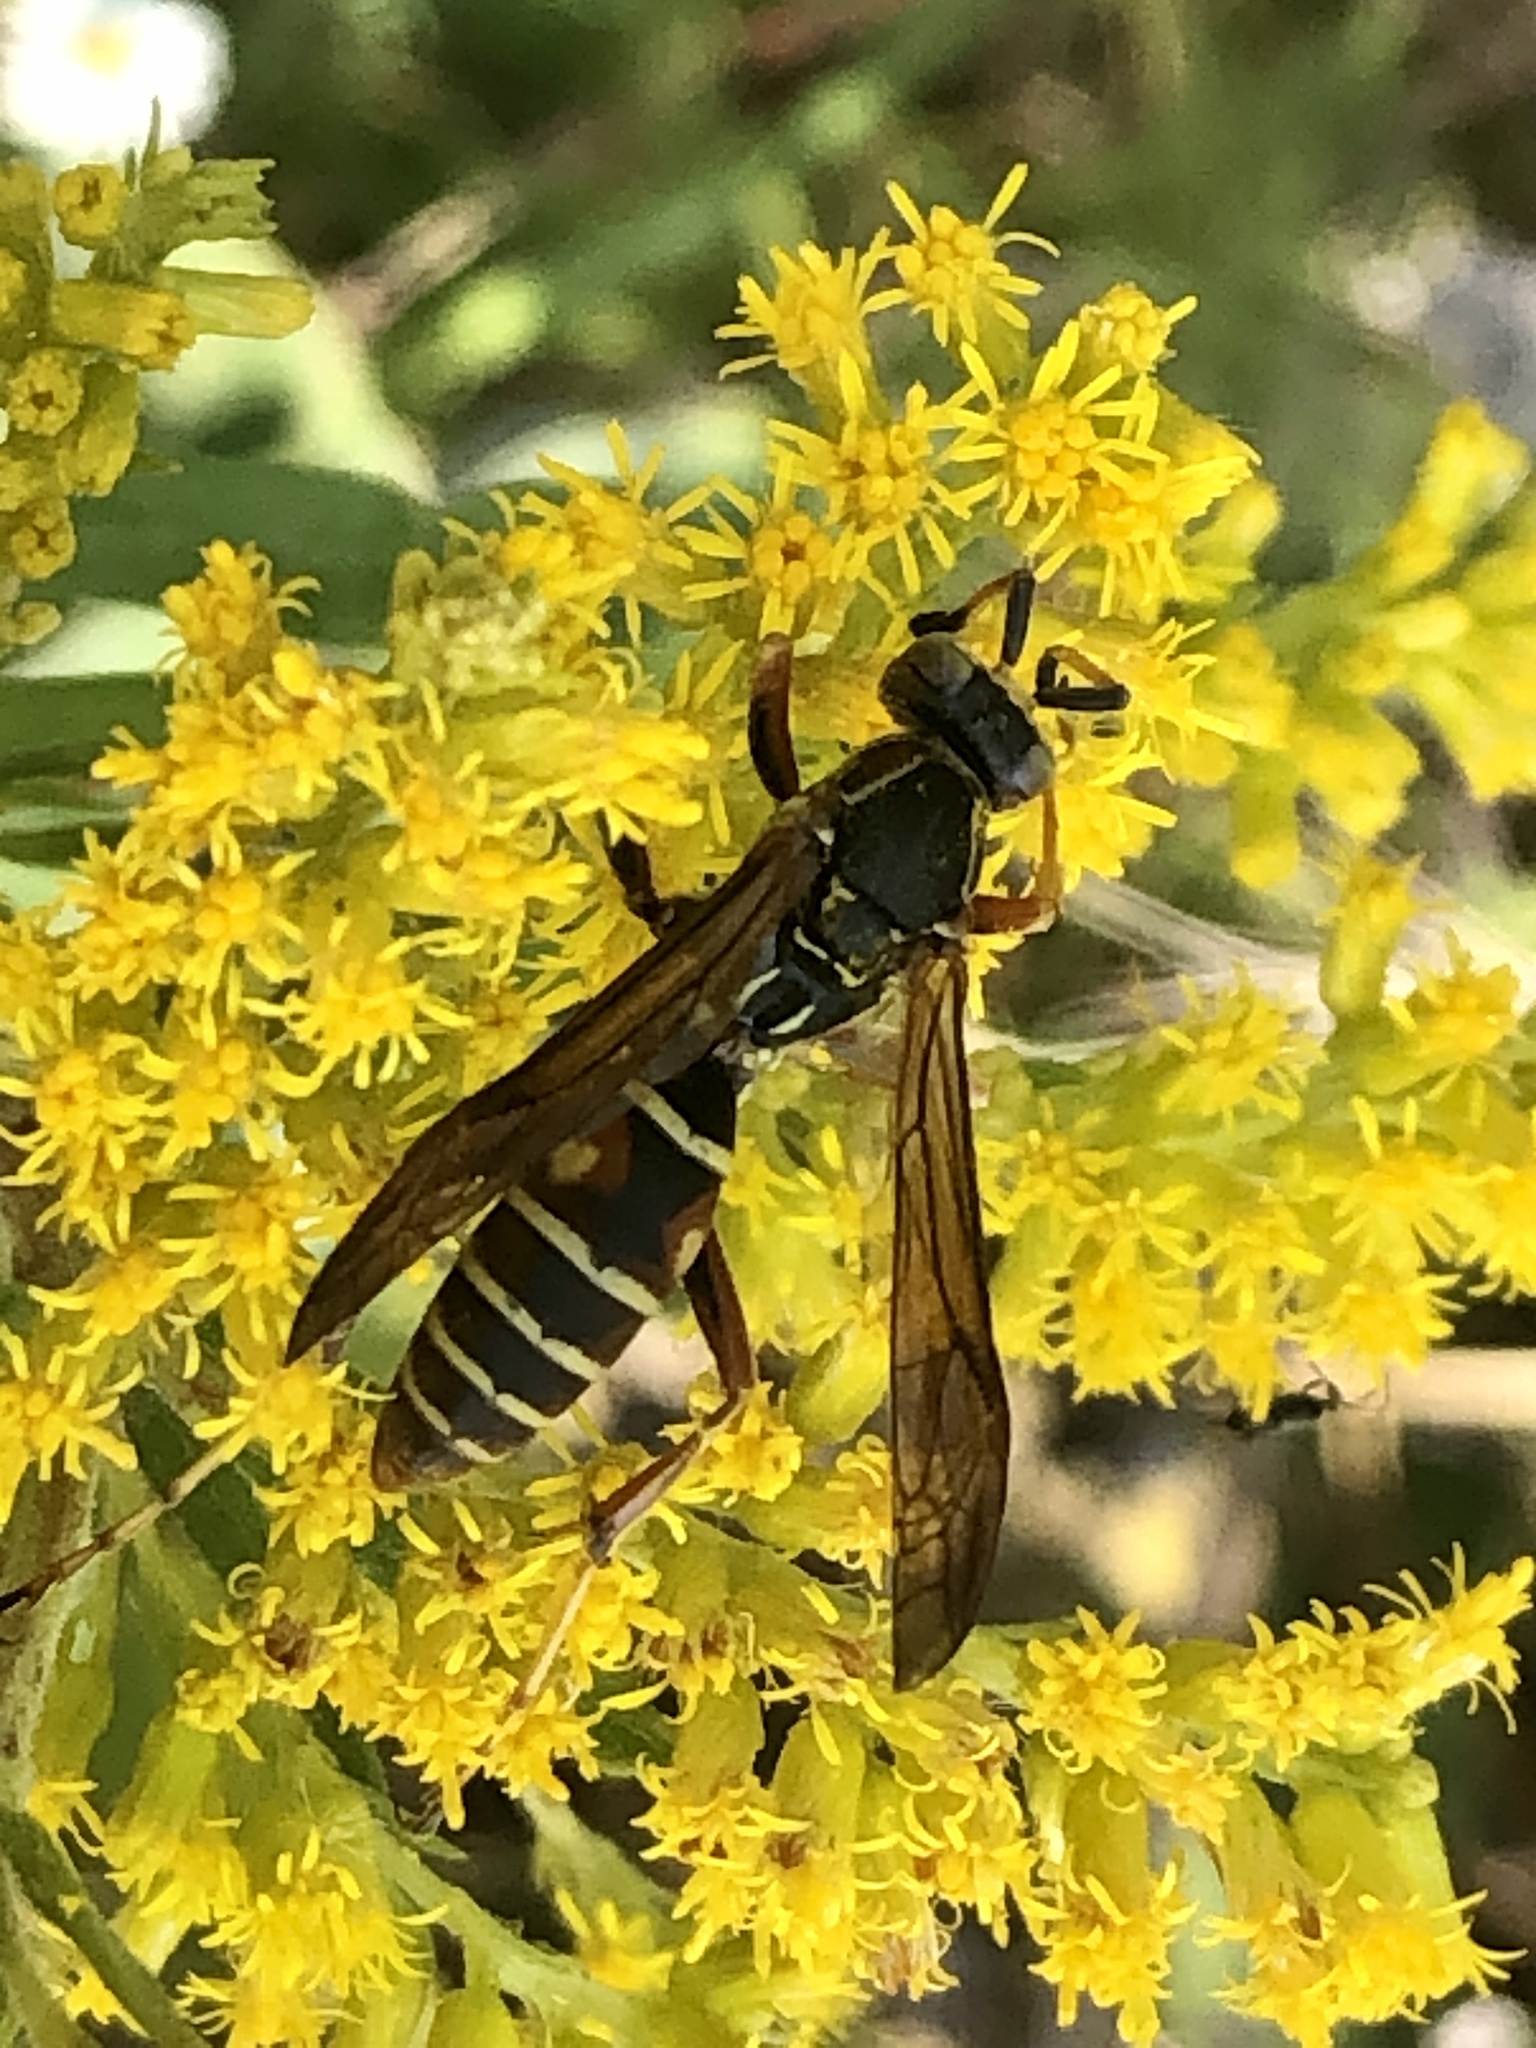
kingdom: Animalia
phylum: Arthropoda
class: Insecta
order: Hymenoptera
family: Eumenidae
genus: Polistes
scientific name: Polistes fuscatus
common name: Dark paper wasp
